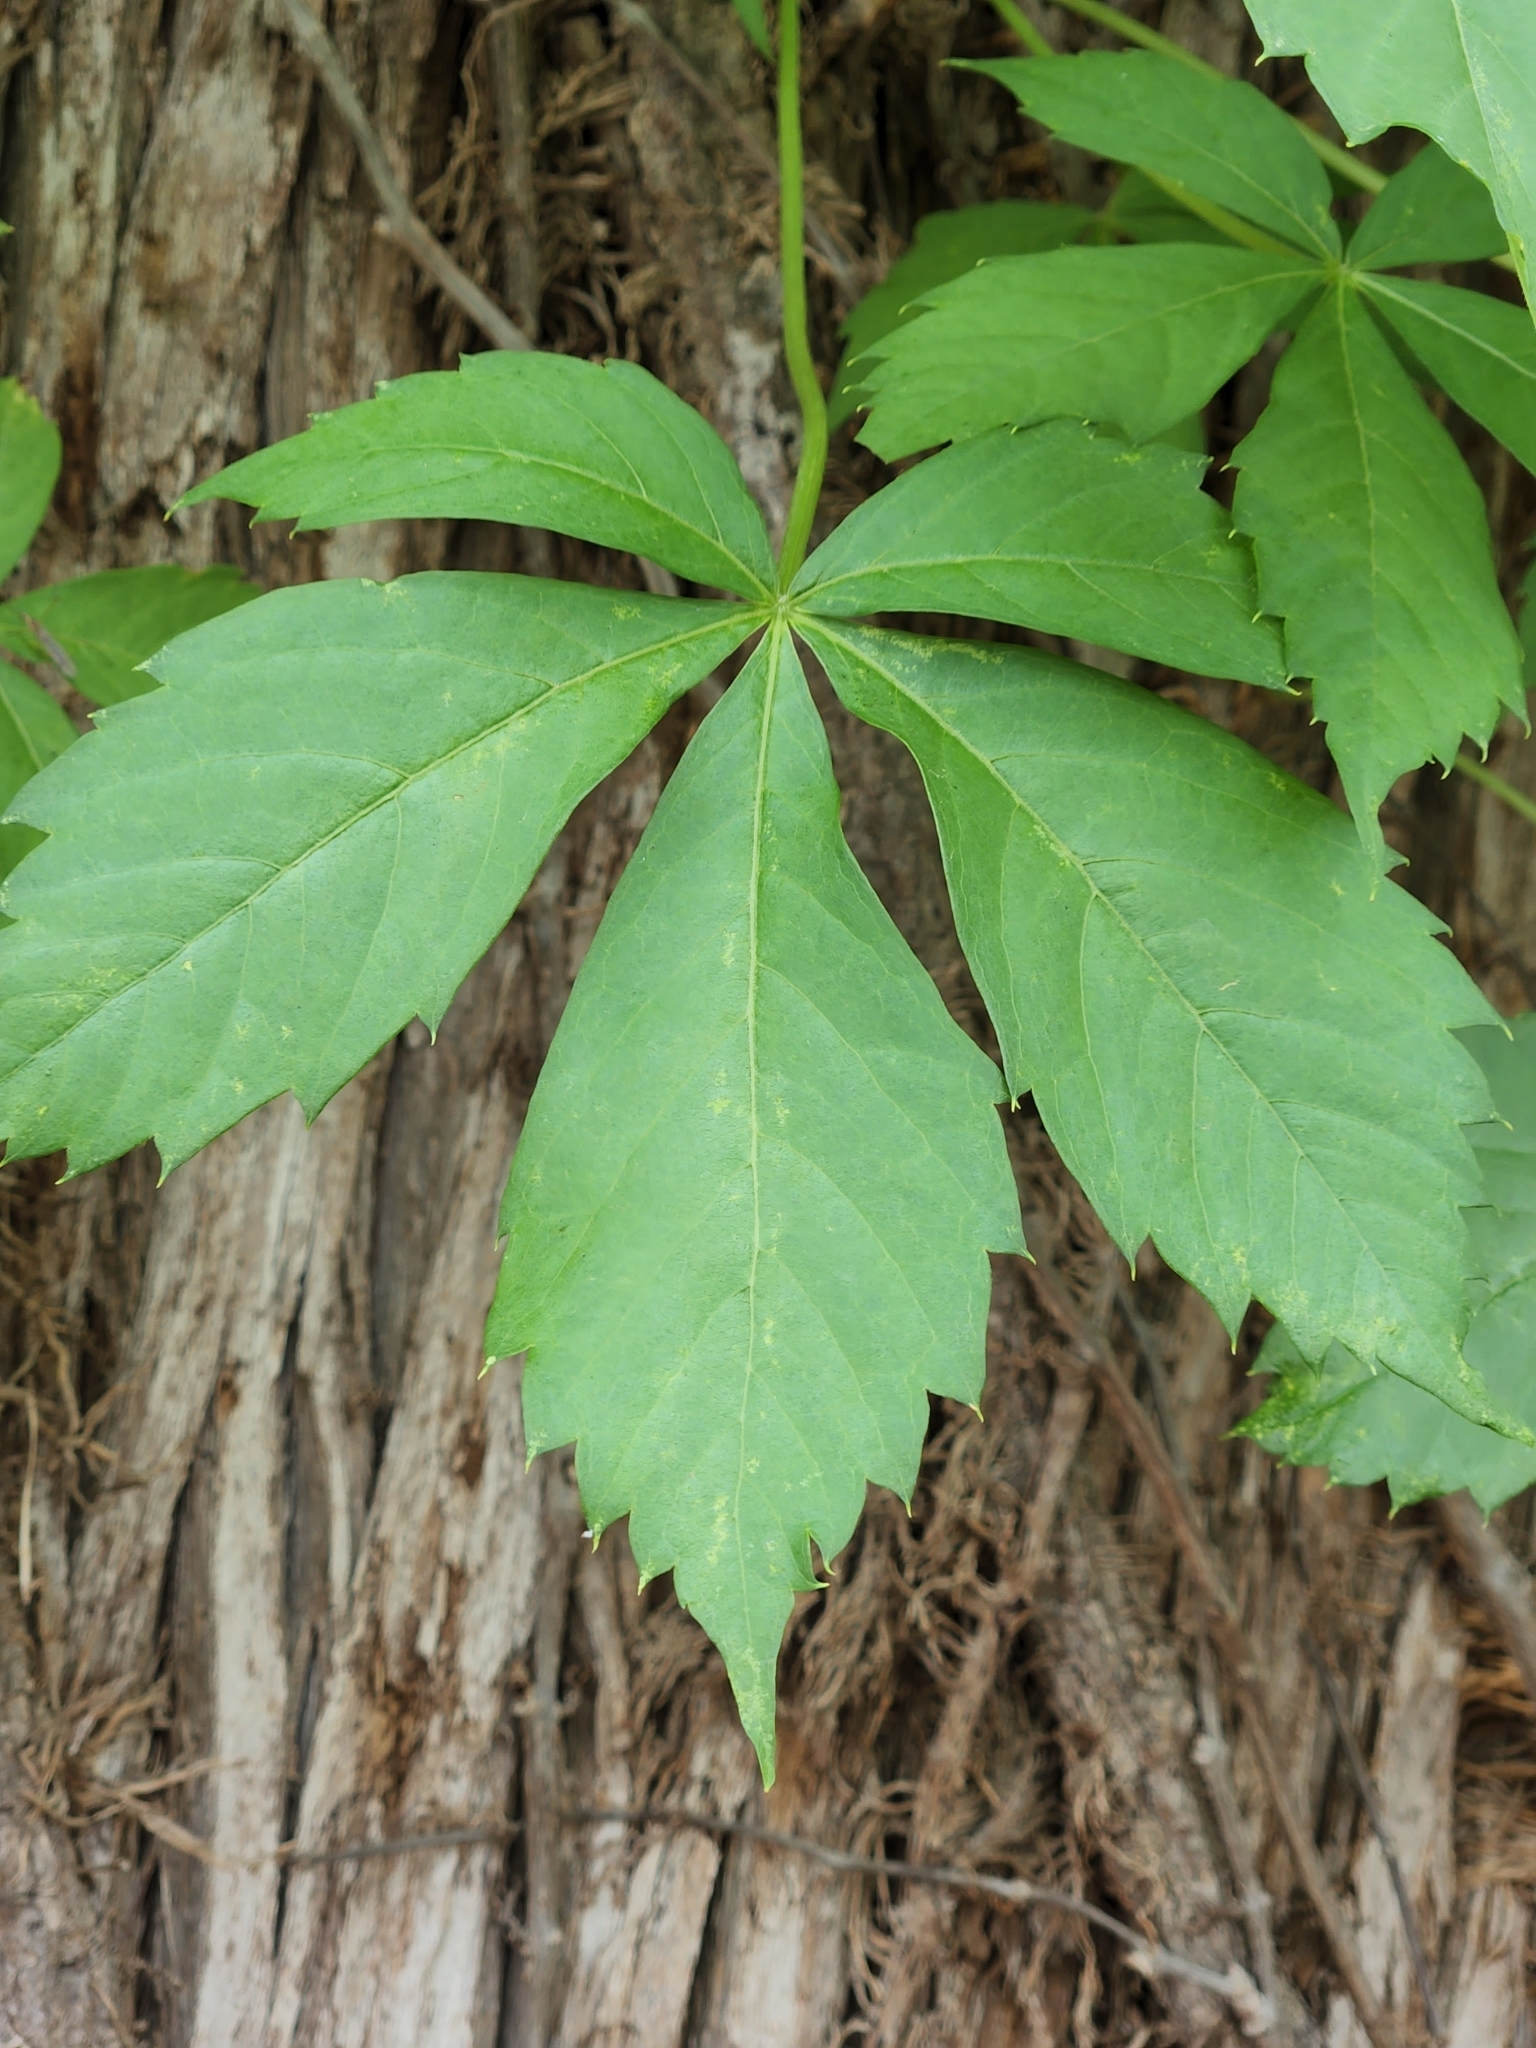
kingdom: Plantae
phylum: Tracheophyta
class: Magnoliopsida
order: Vitales
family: Vitaceae
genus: Parthenocissus
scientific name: Parthenocissus quinquefolia
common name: Virginia-creeper
